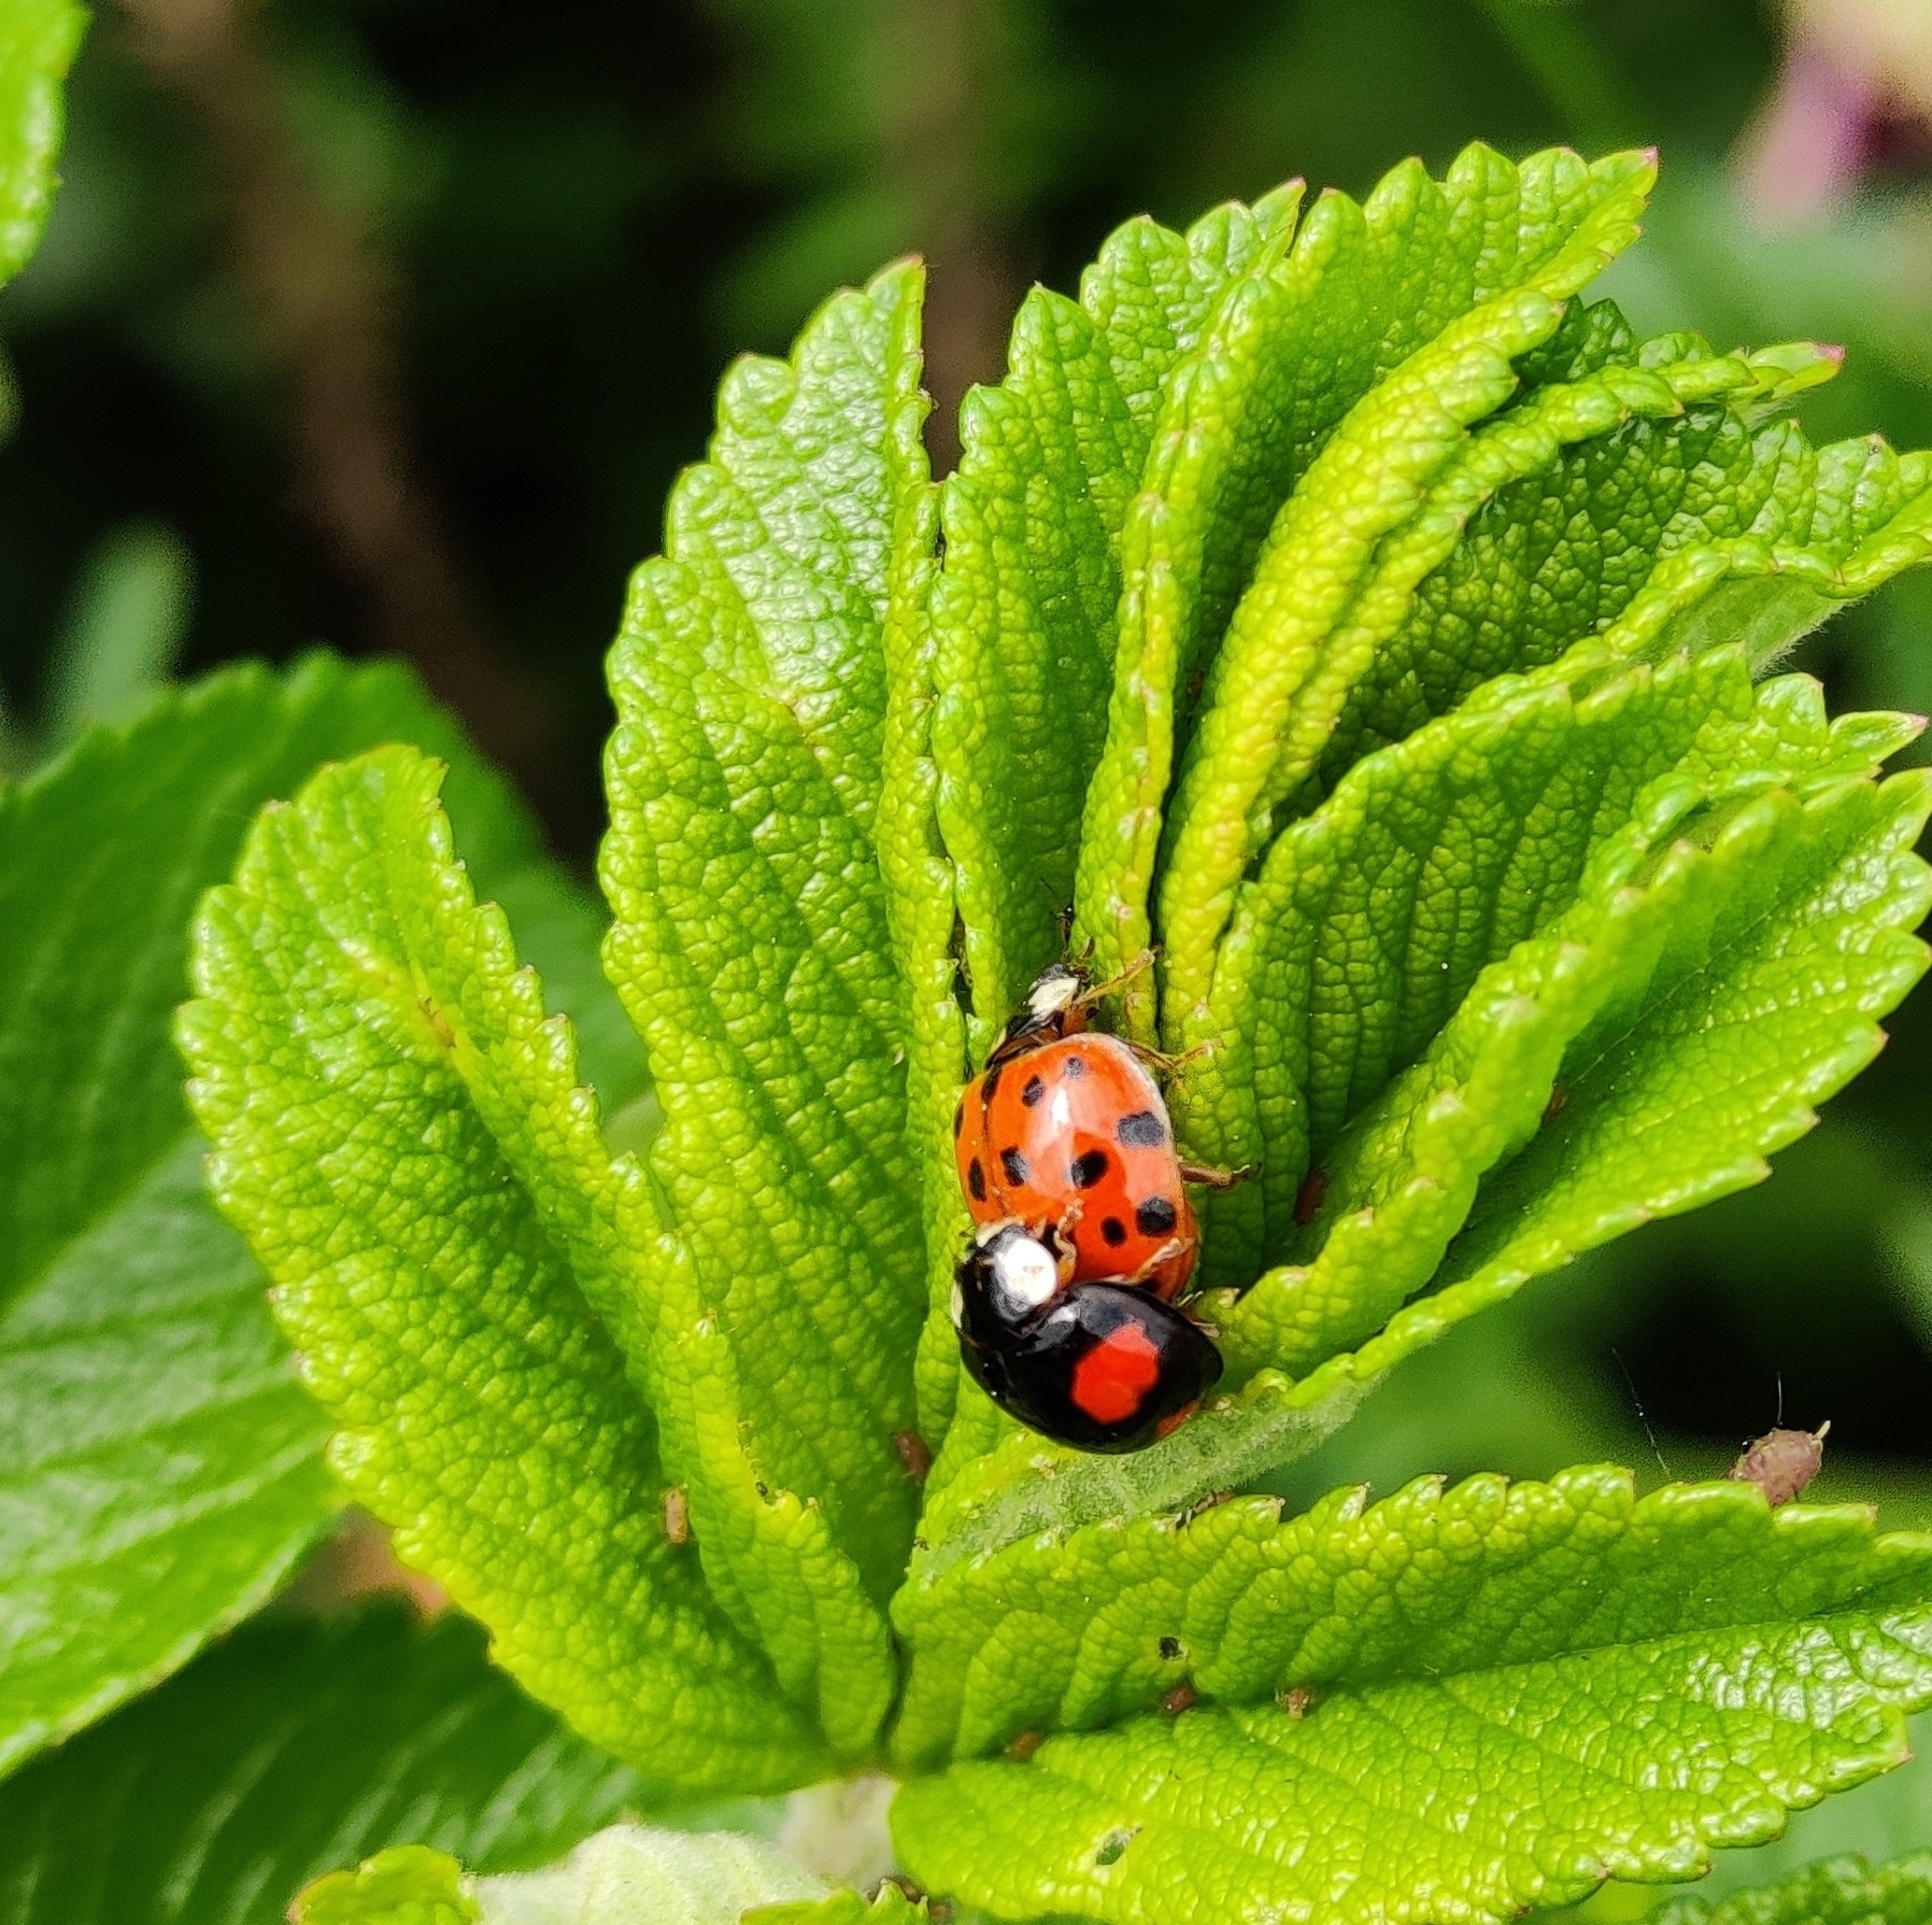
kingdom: Animalia
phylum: Arthropoda
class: Insecta
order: Coleoptera
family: Coccinellidae
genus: Harmonia
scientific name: Harmonia axyridis
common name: Harlequin ladybird
